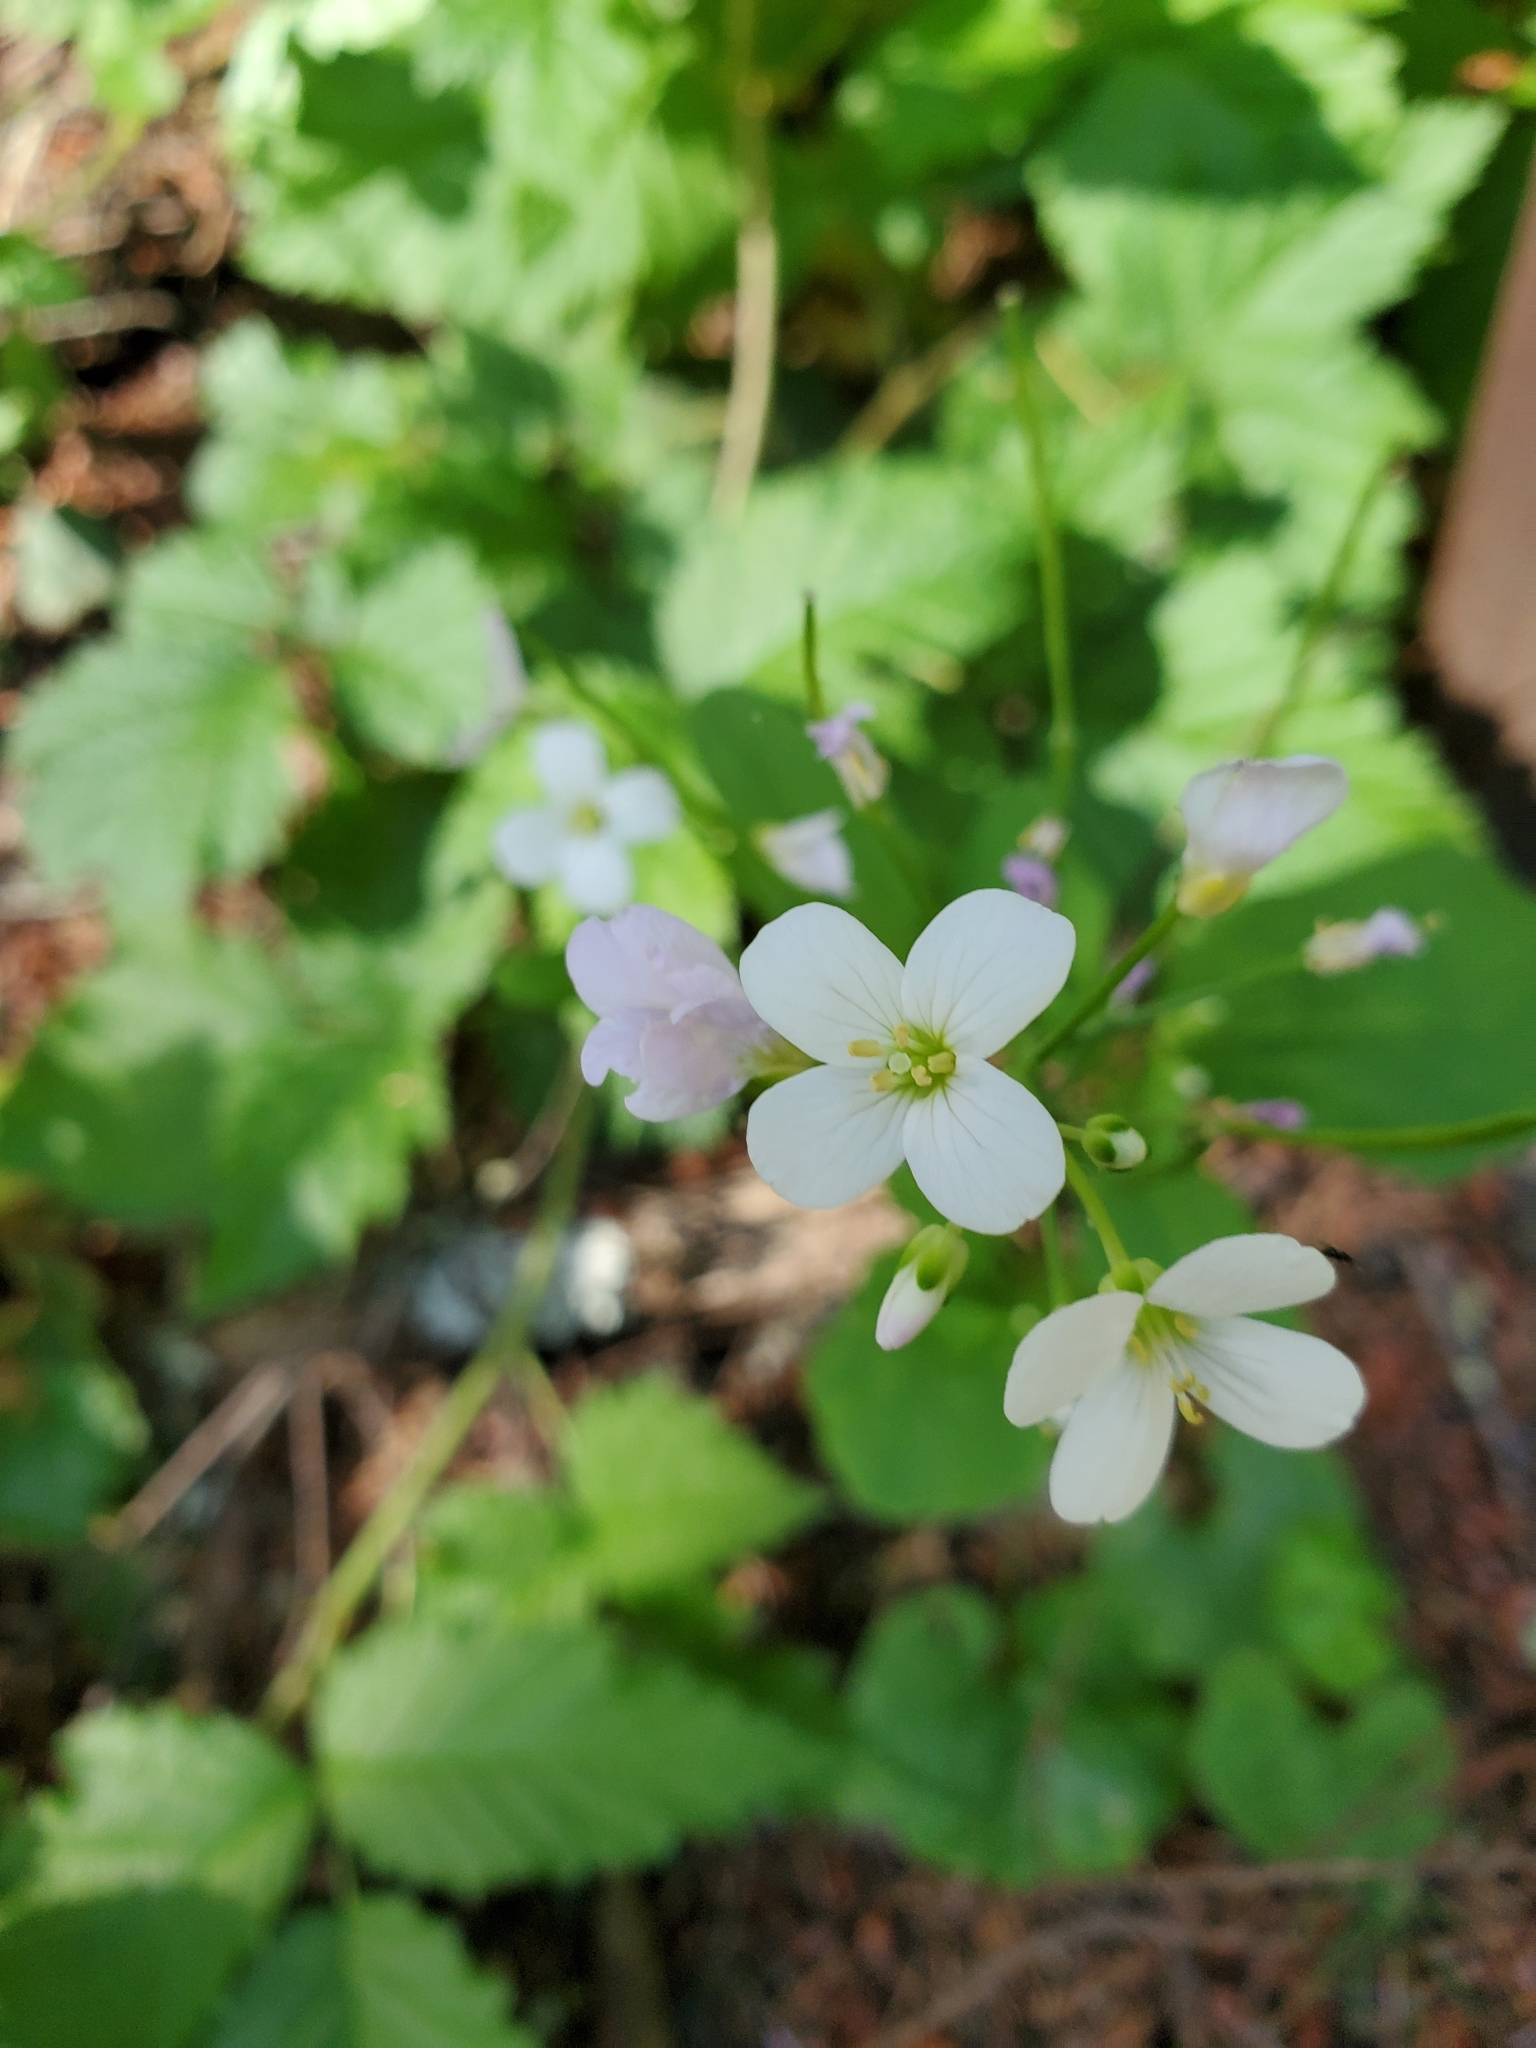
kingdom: Plantae
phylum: Tracheophyta
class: Magnoliopsida
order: Brassicales
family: Brassicaceae
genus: Cardamine
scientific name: Cardamine californica
